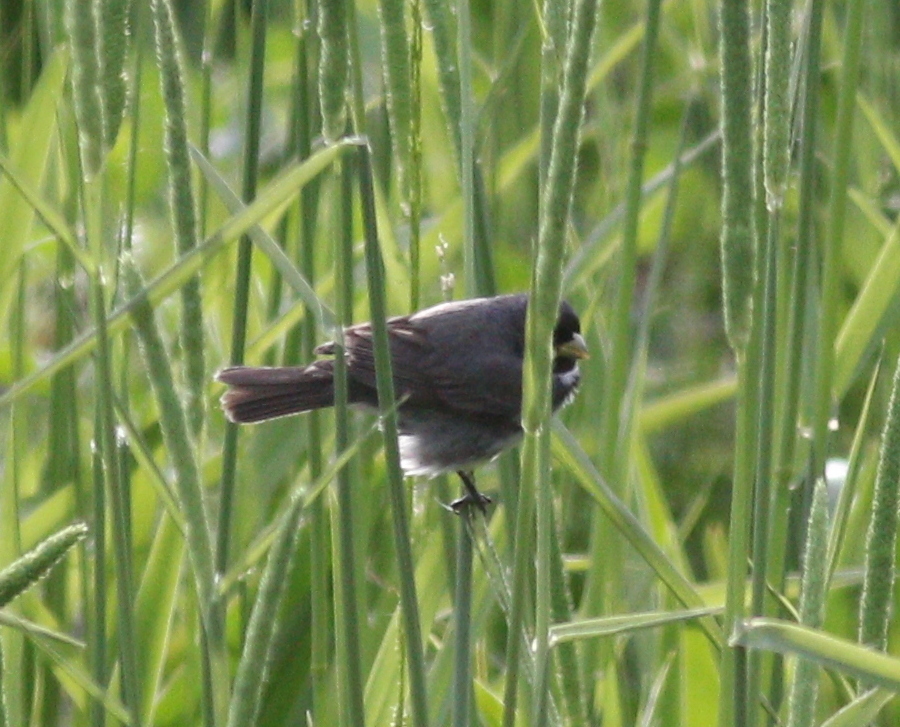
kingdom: Animalia
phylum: Chordata
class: Aves
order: Passeriformes
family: Thraupidae
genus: Sporophila
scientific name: Sporophila caerulescens
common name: Double-collared seedeater
